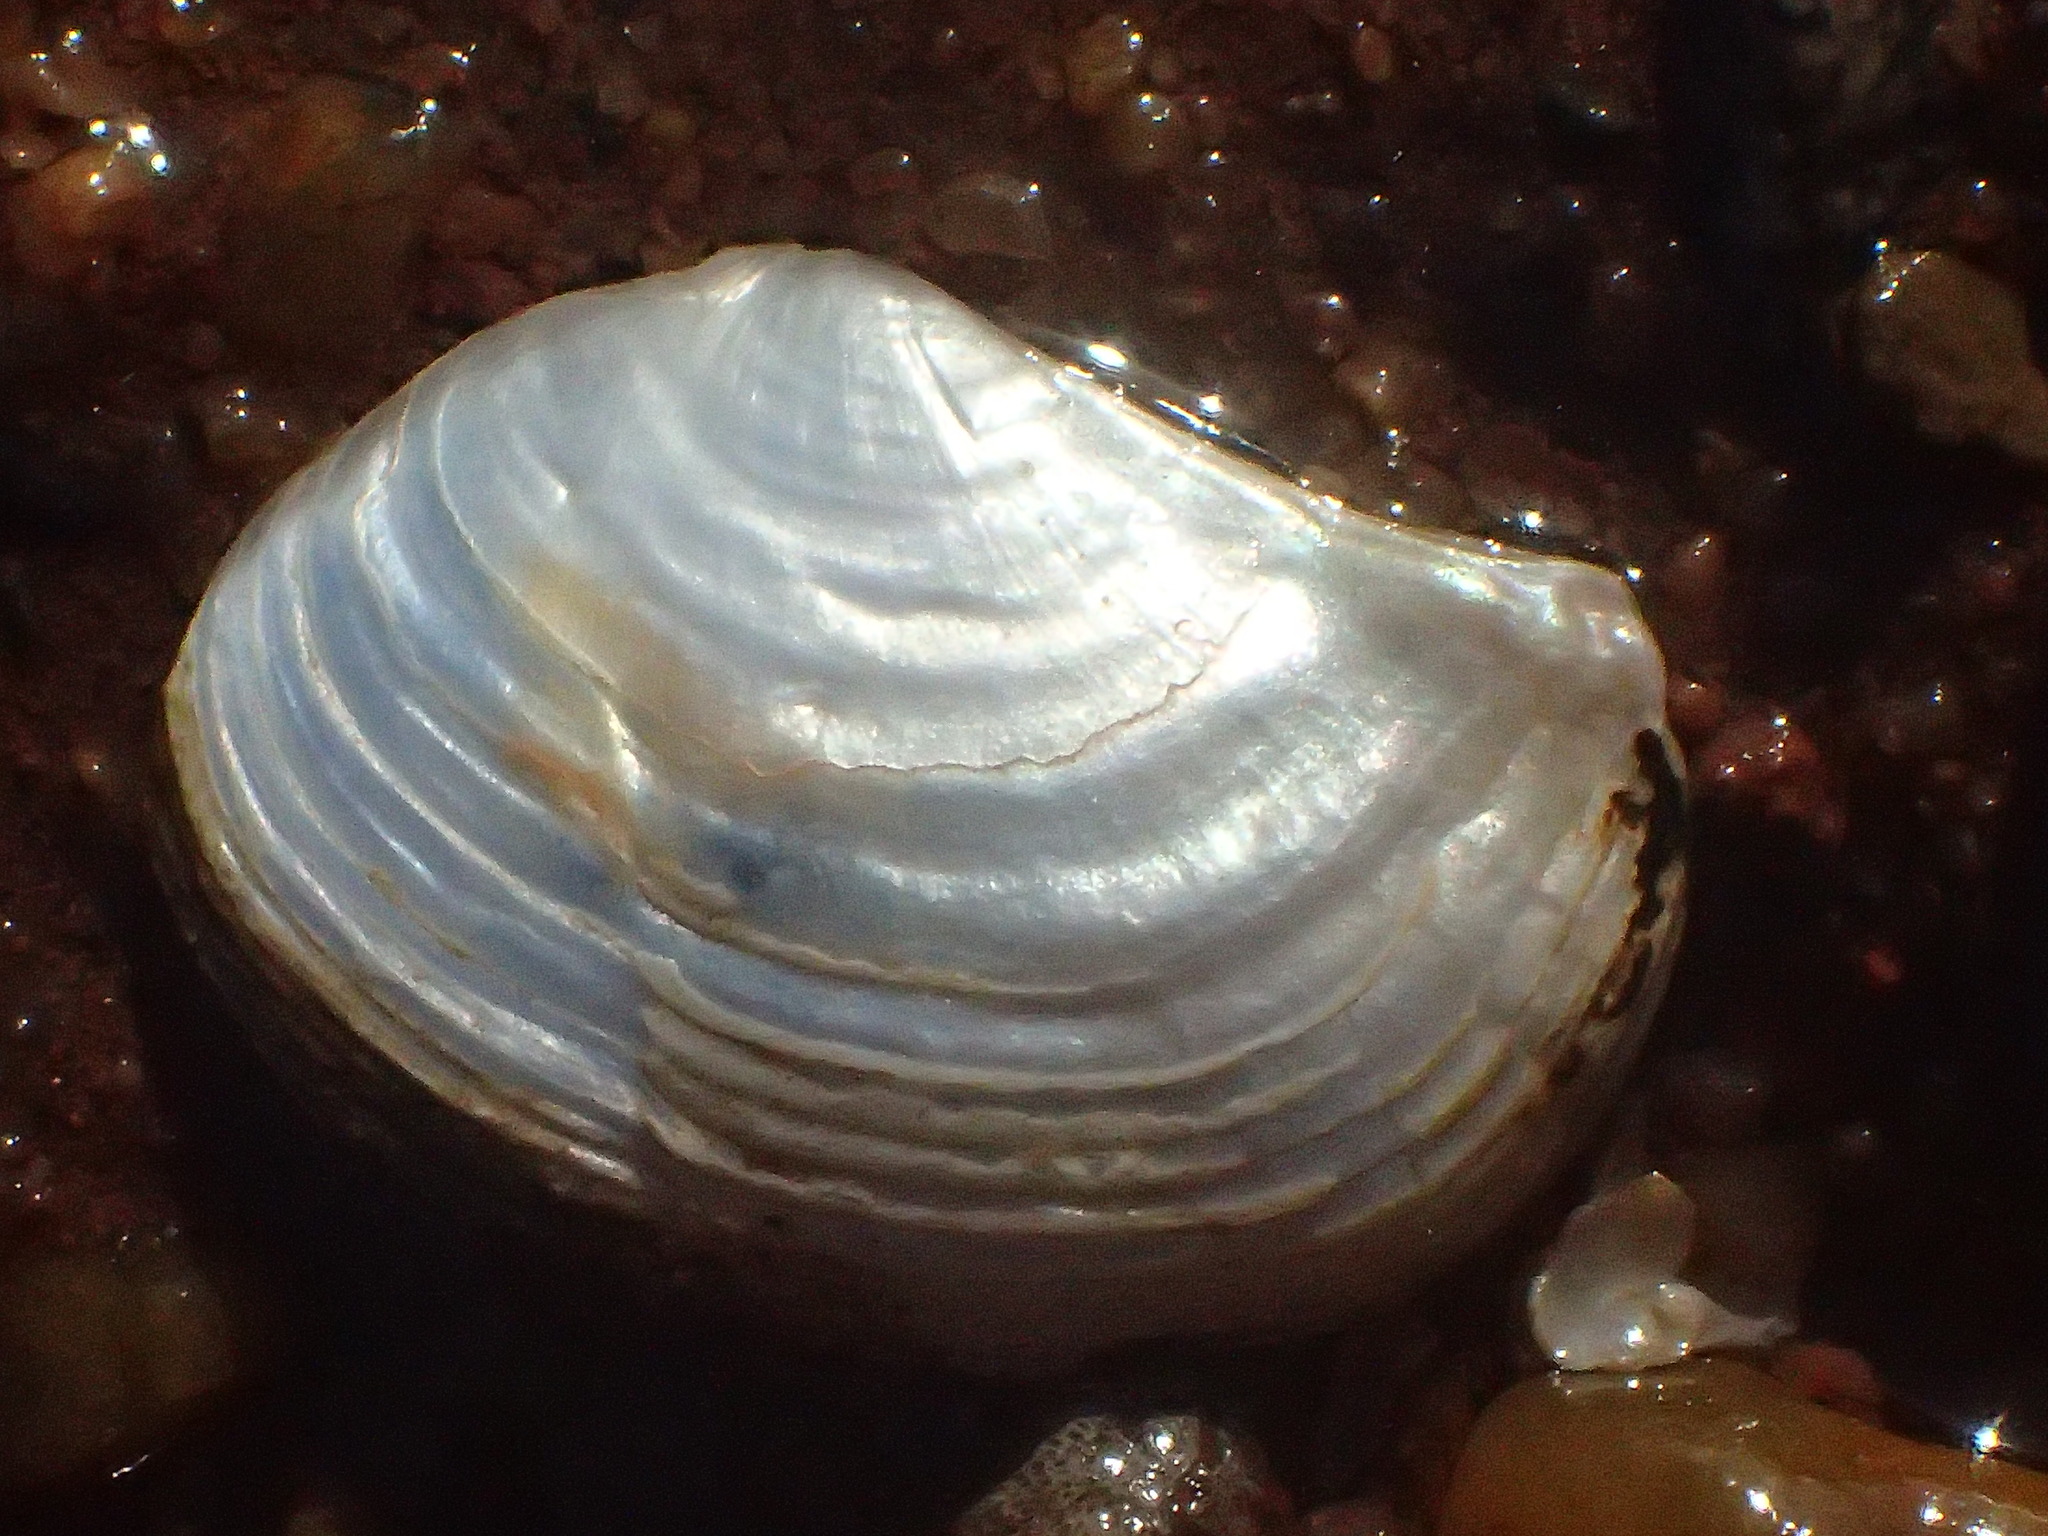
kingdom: Animalia
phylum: Mollusca
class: Bivalvia
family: Pandoridae
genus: Pandora
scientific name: Pandora gouldiana
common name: Rounded pandora
